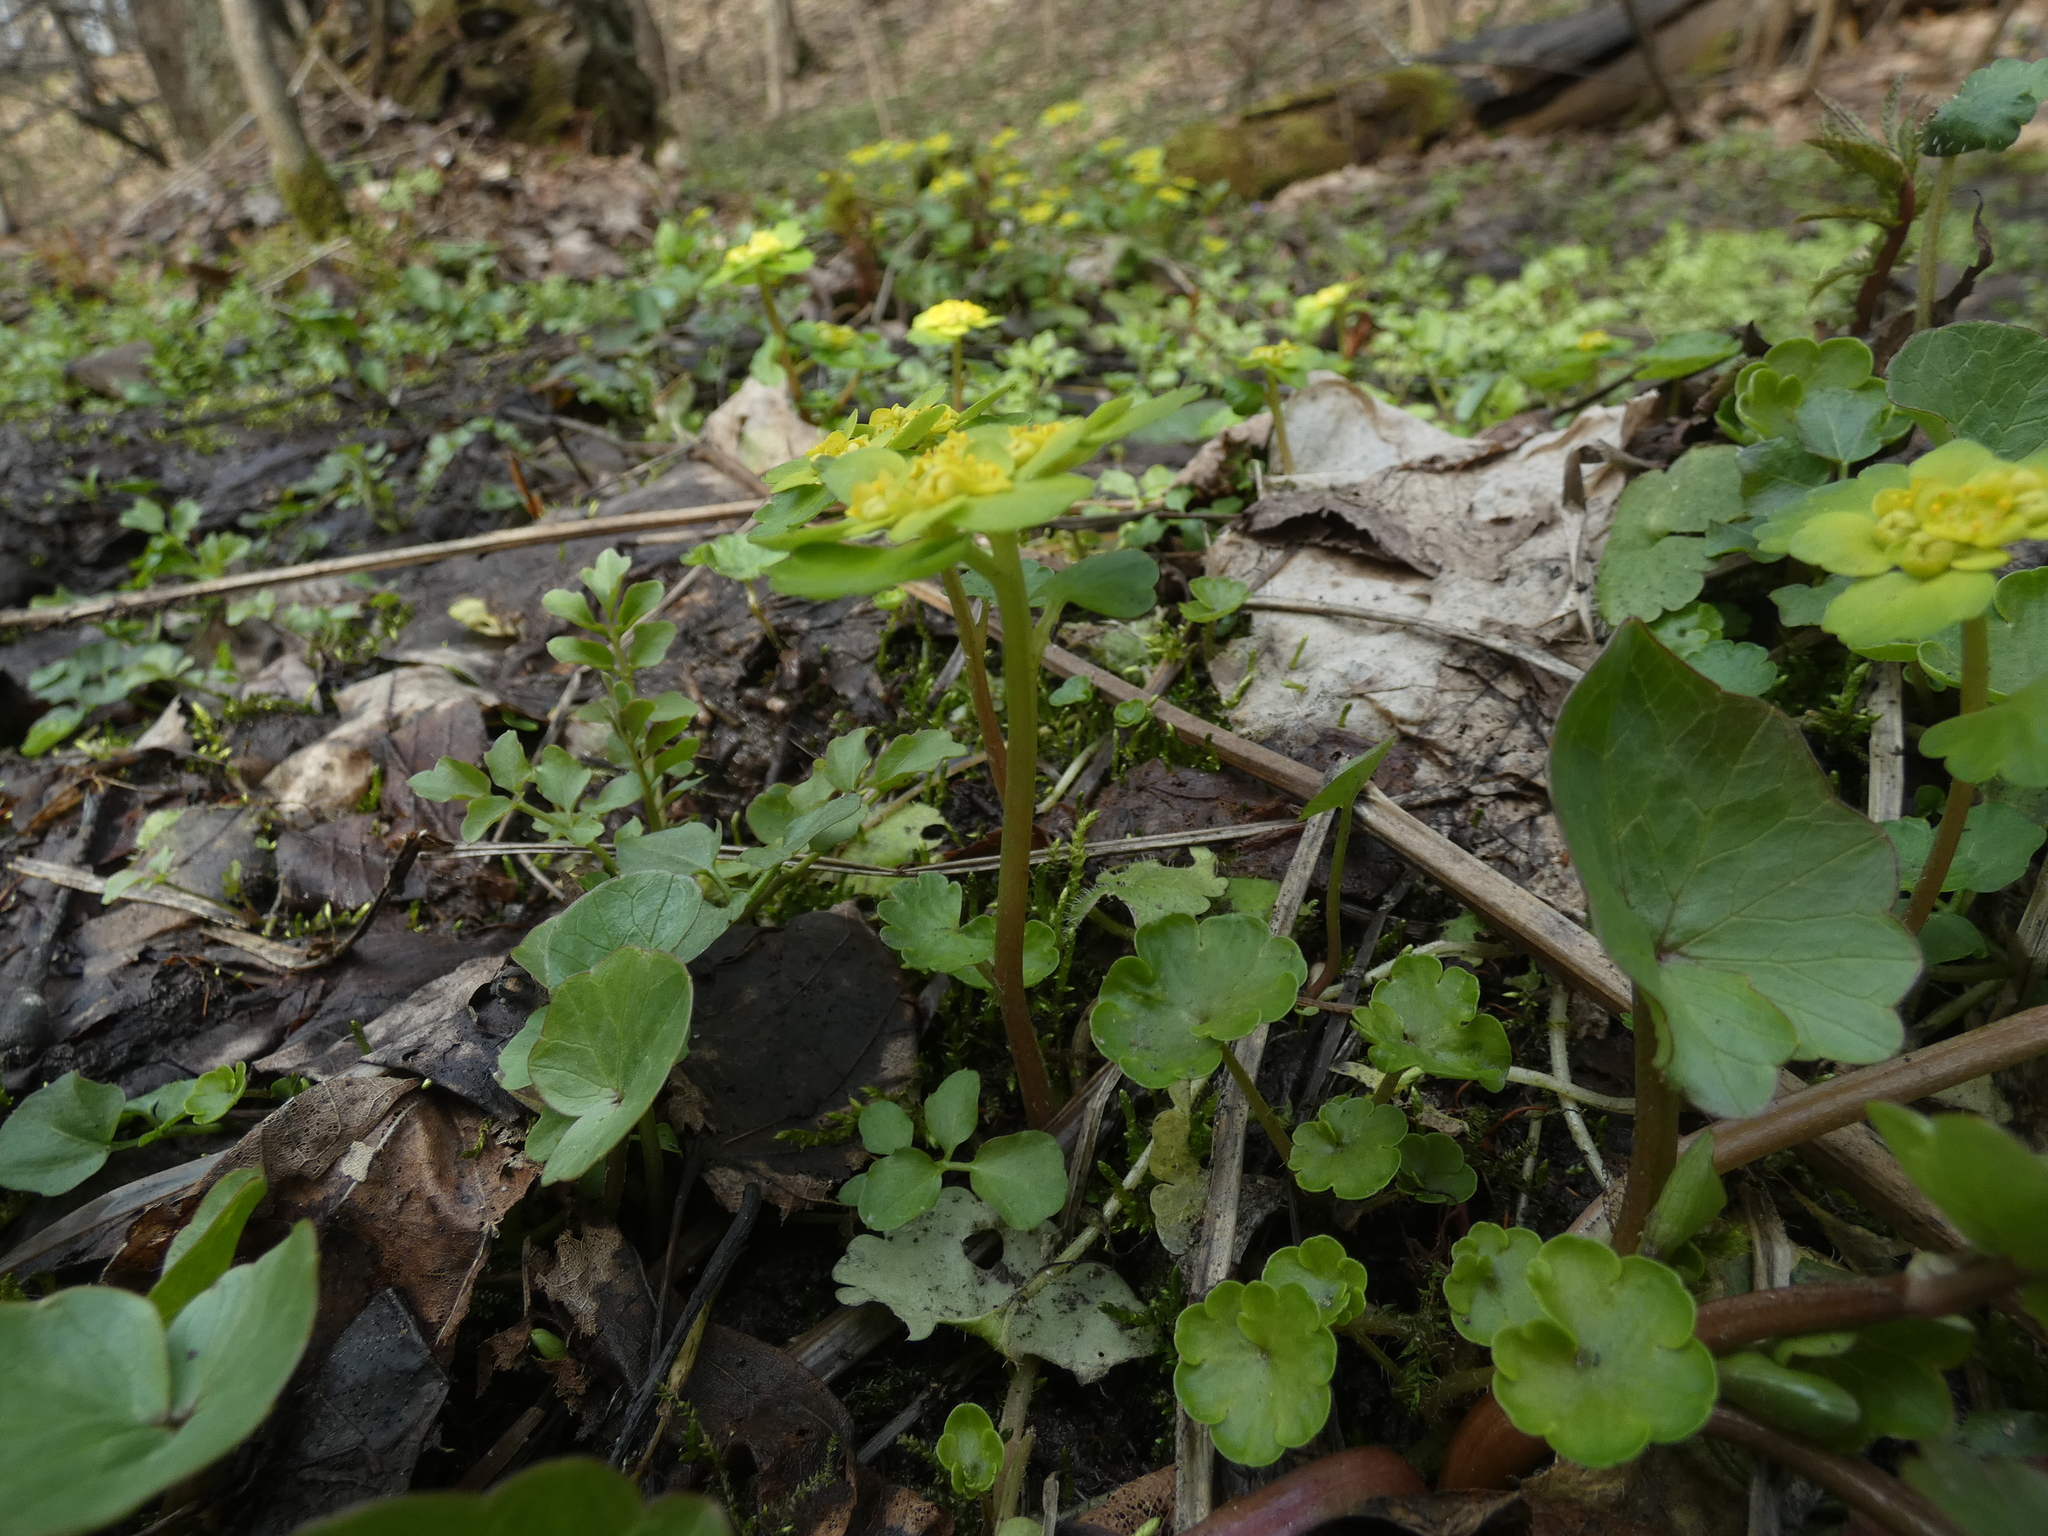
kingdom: Plantae
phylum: Tracheophyta
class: Magnoliopsida
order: Saxifragales
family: Saxifragaceae
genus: Chrysosplenium
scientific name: Chrysosplenium alternifolium
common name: Alternate-leaved golden-saxifrage
